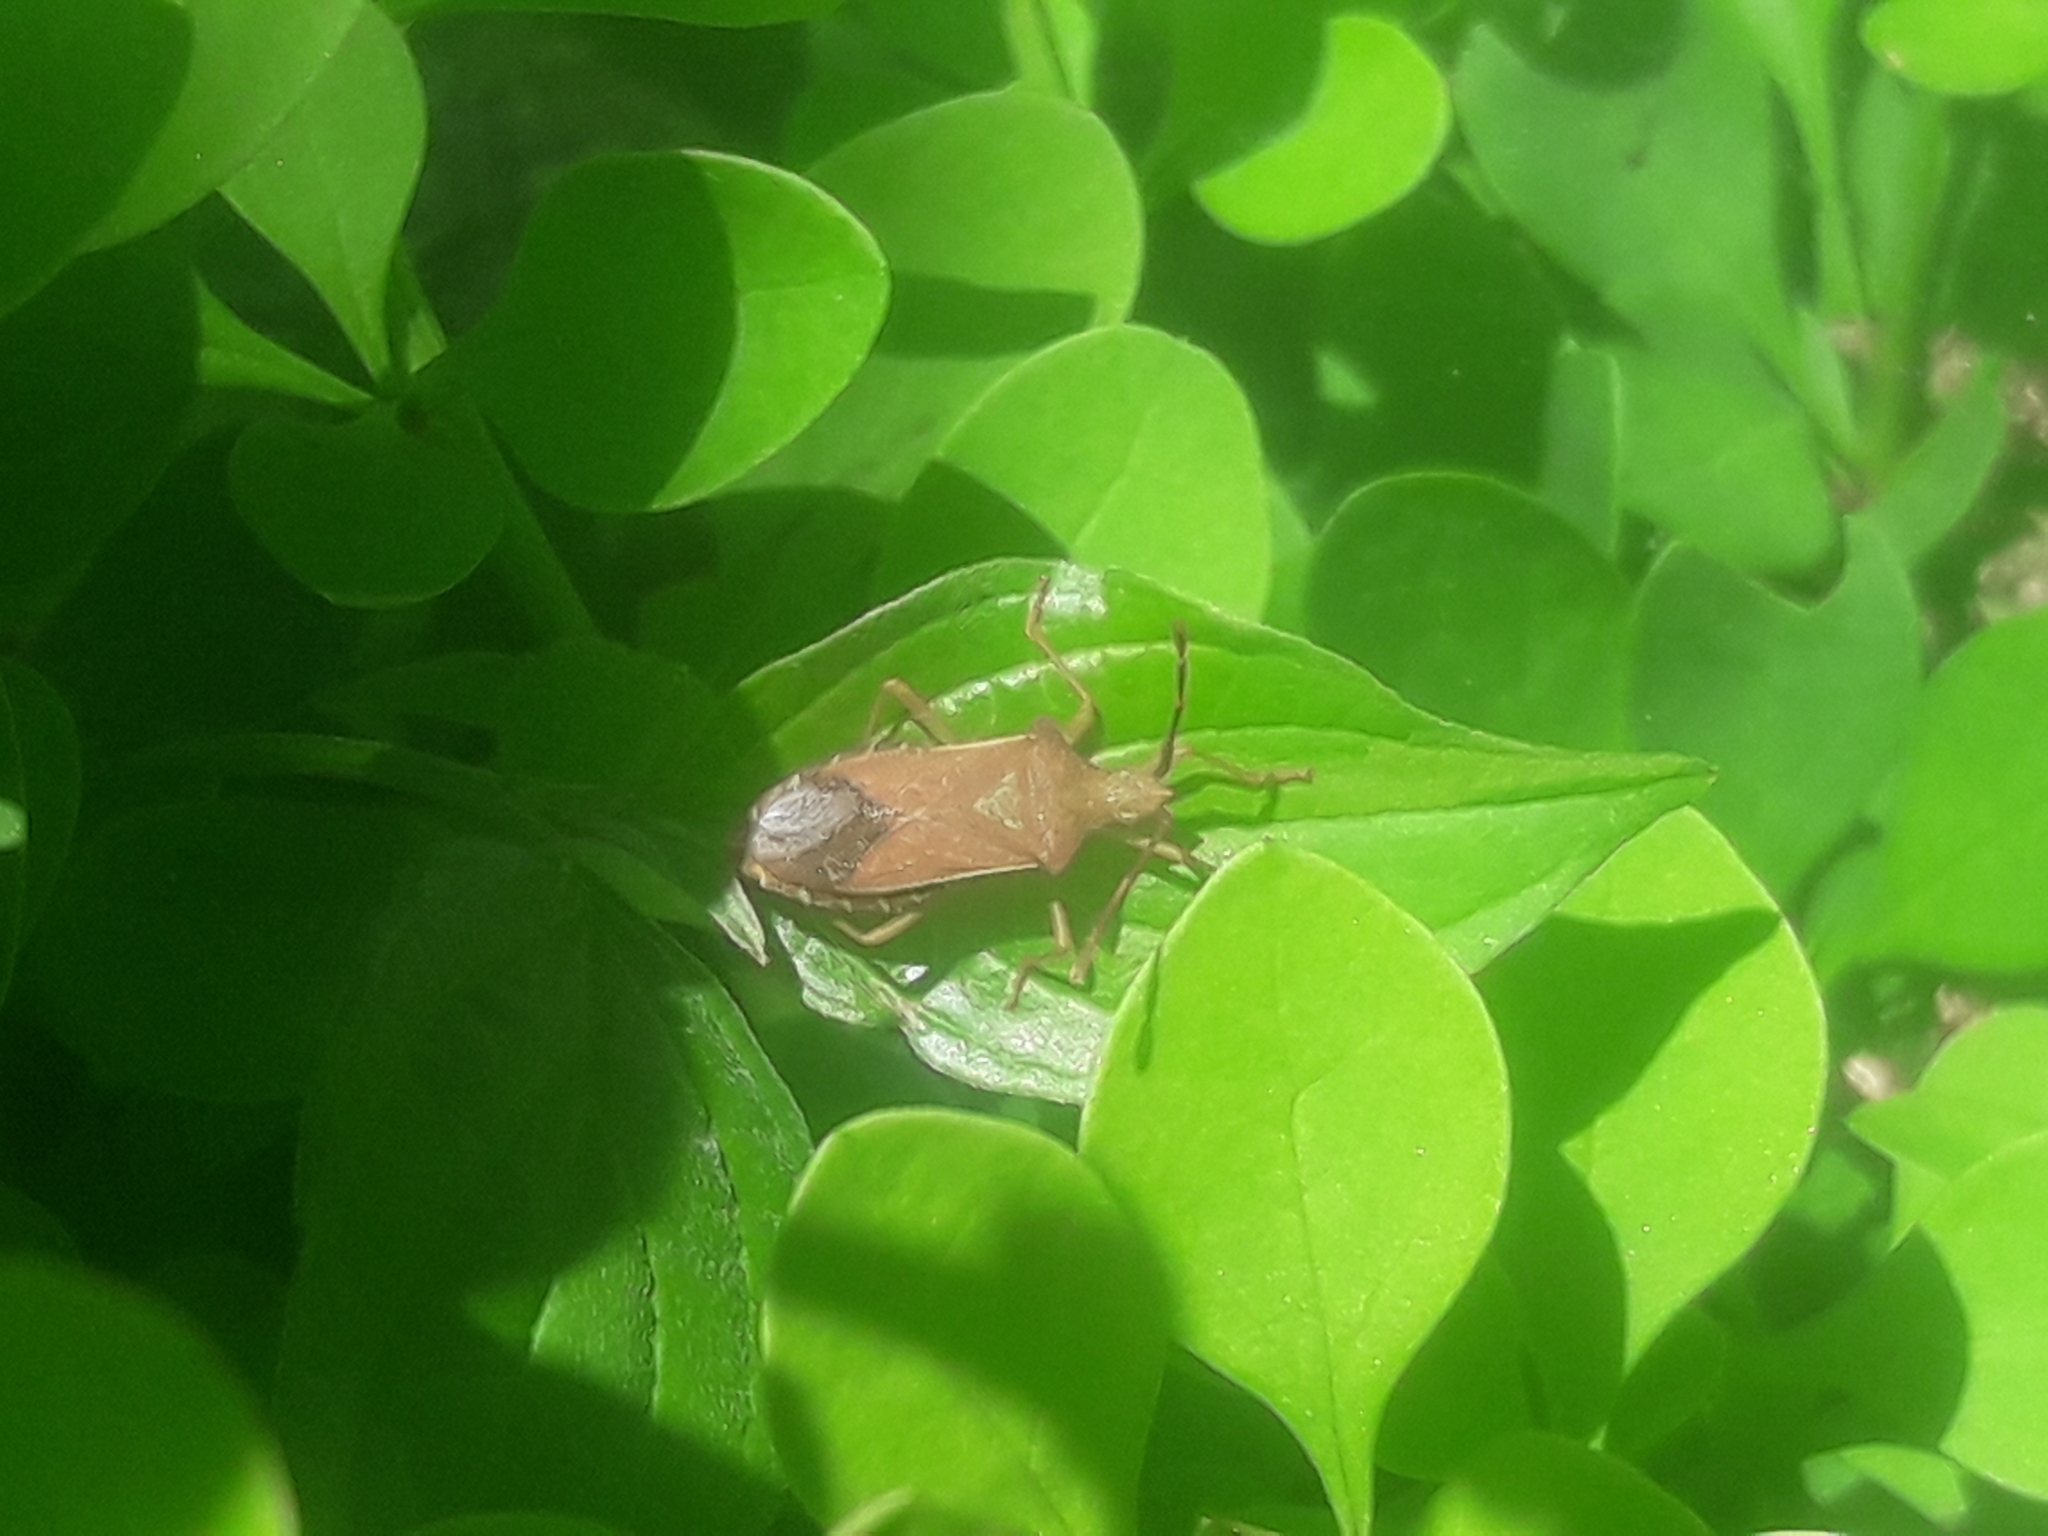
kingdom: Animalia
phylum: Arthropoda
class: Insecta
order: Hemiptera
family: Coreidae
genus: Gonocerus
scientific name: Gonocerus acuteangulatus
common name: Box bug
